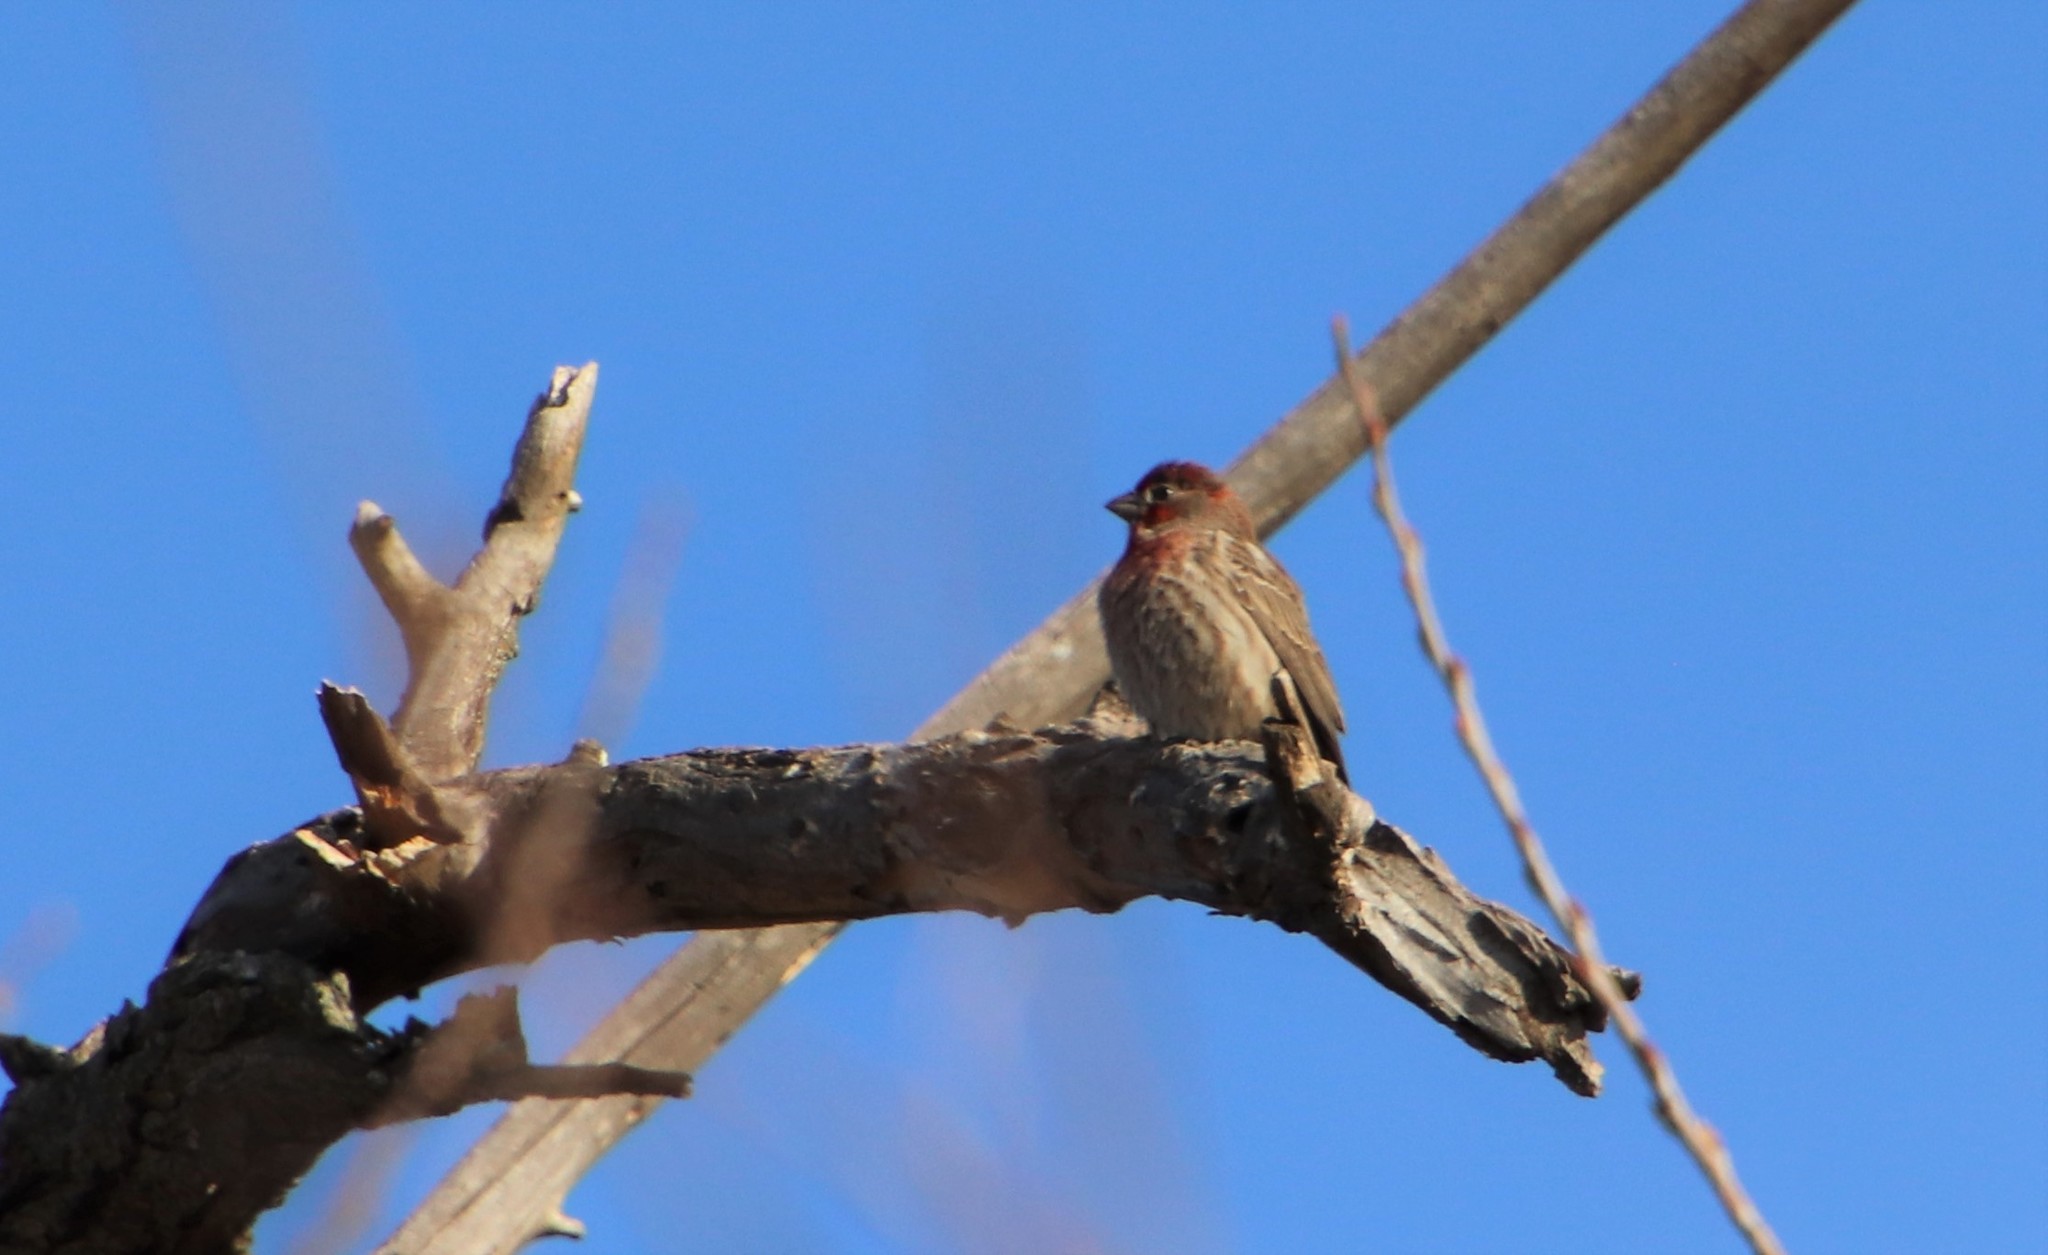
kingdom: Animalia
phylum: Chordata
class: Aves
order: Passeriformes
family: Fringillidae
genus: Haemorhous
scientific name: Haemorhous mexicanus
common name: House finch
